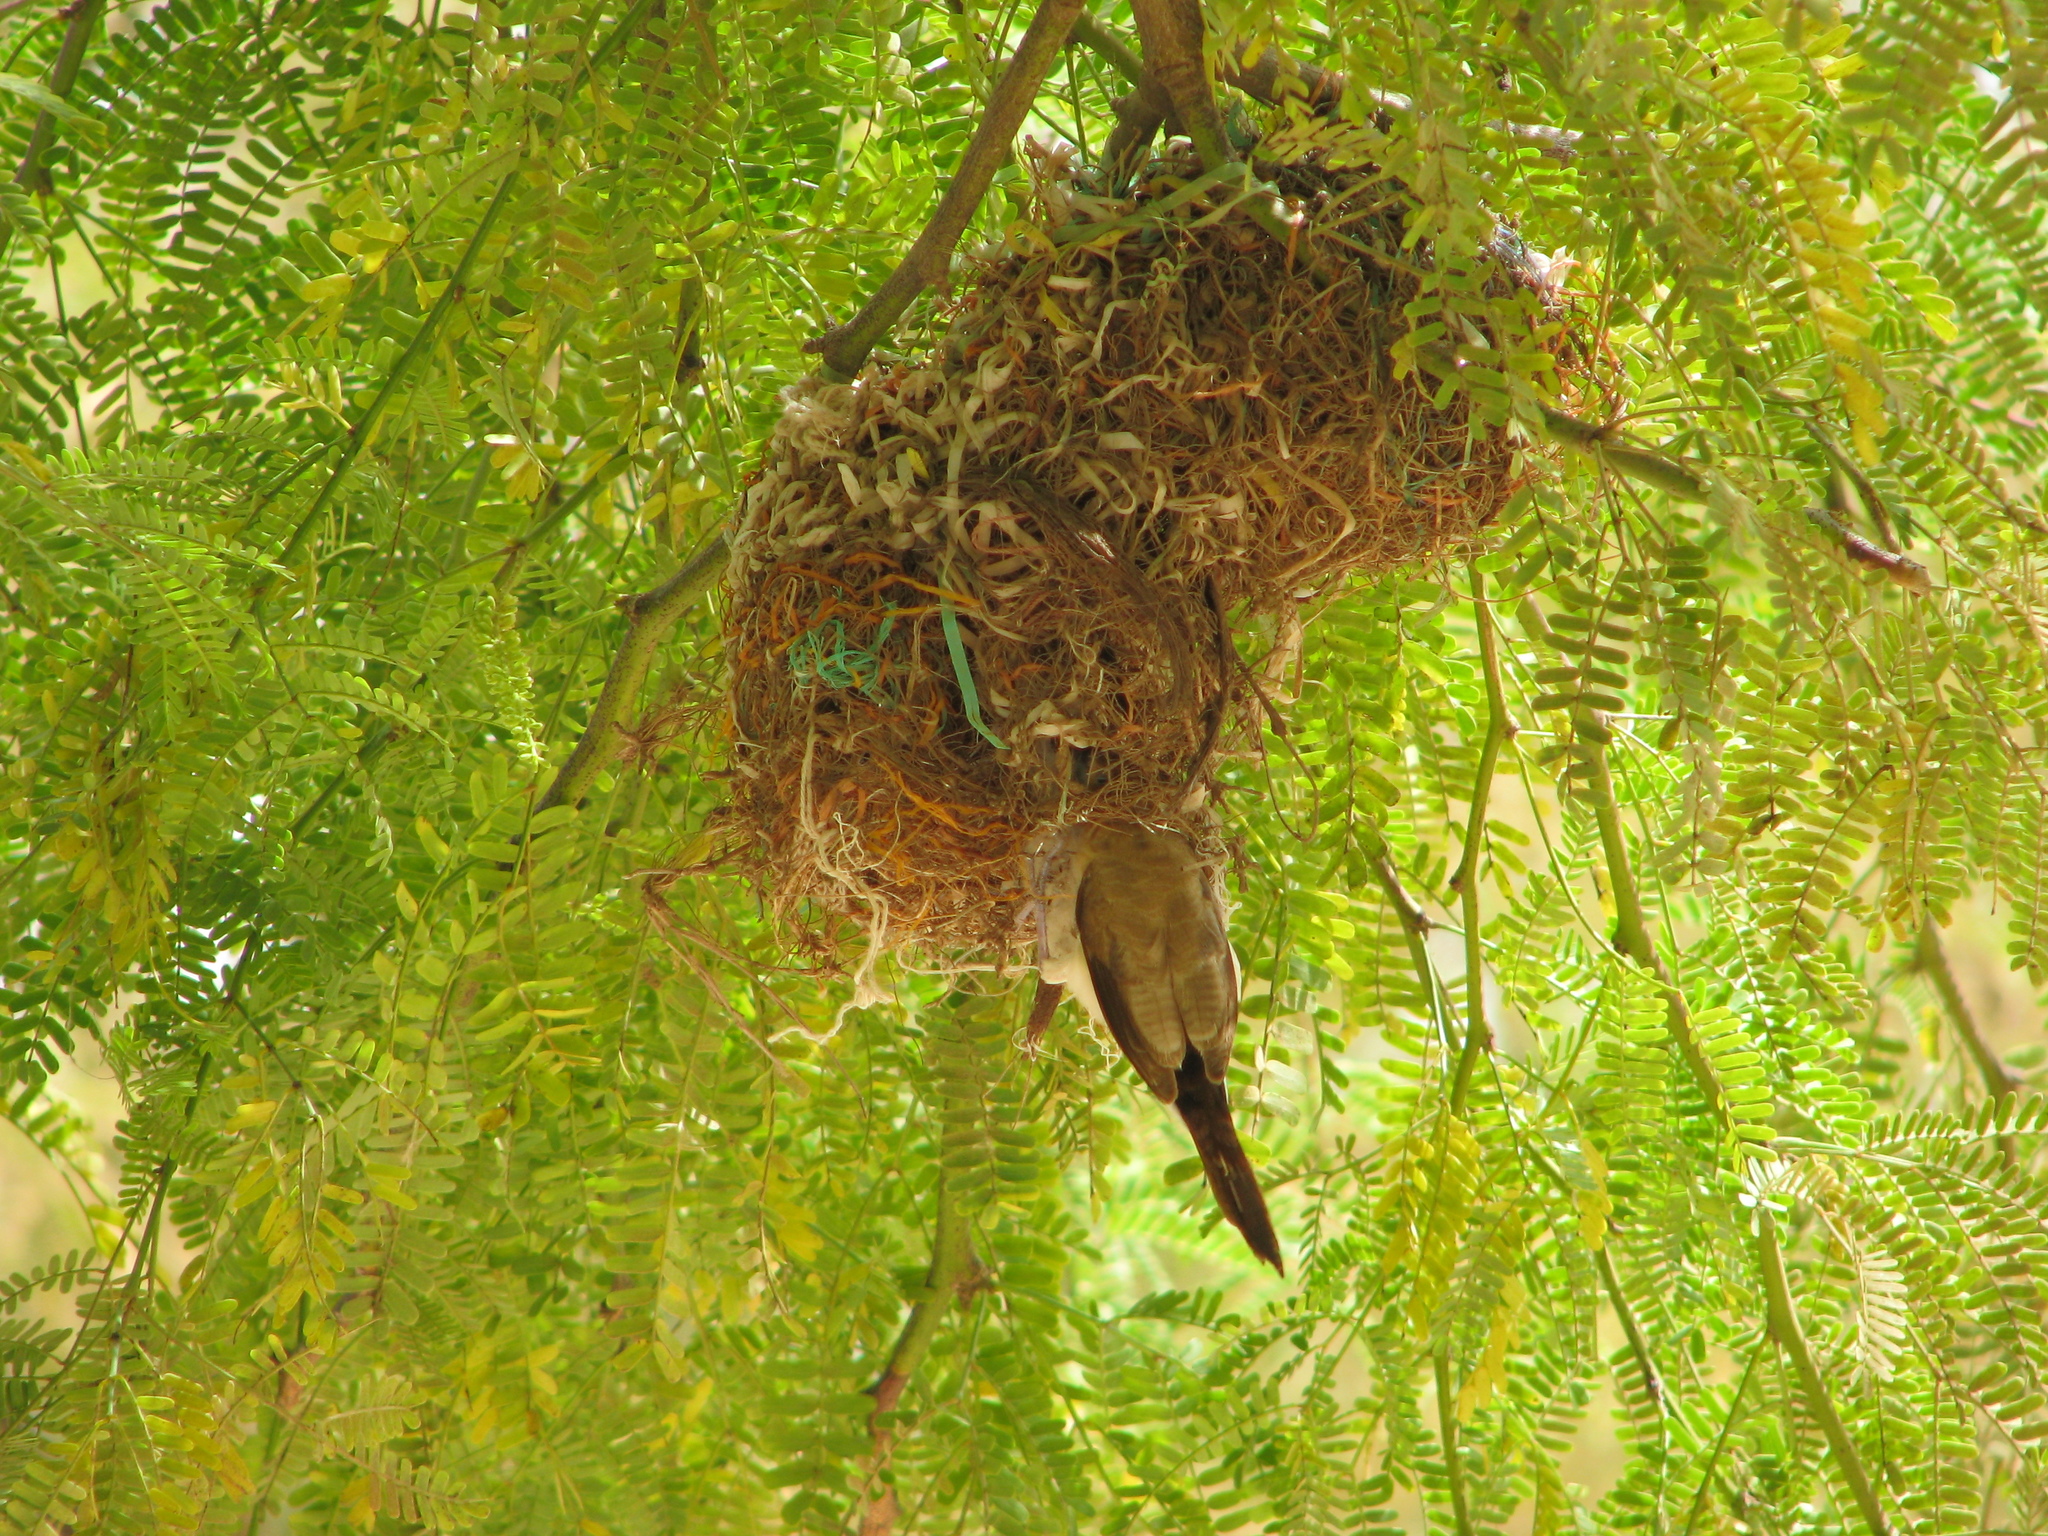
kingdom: Animalia
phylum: Chordata
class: Aves
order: Passeriformes
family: Estrildidae
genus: Euodice
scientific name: Euodice cantans
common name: African silverbill
